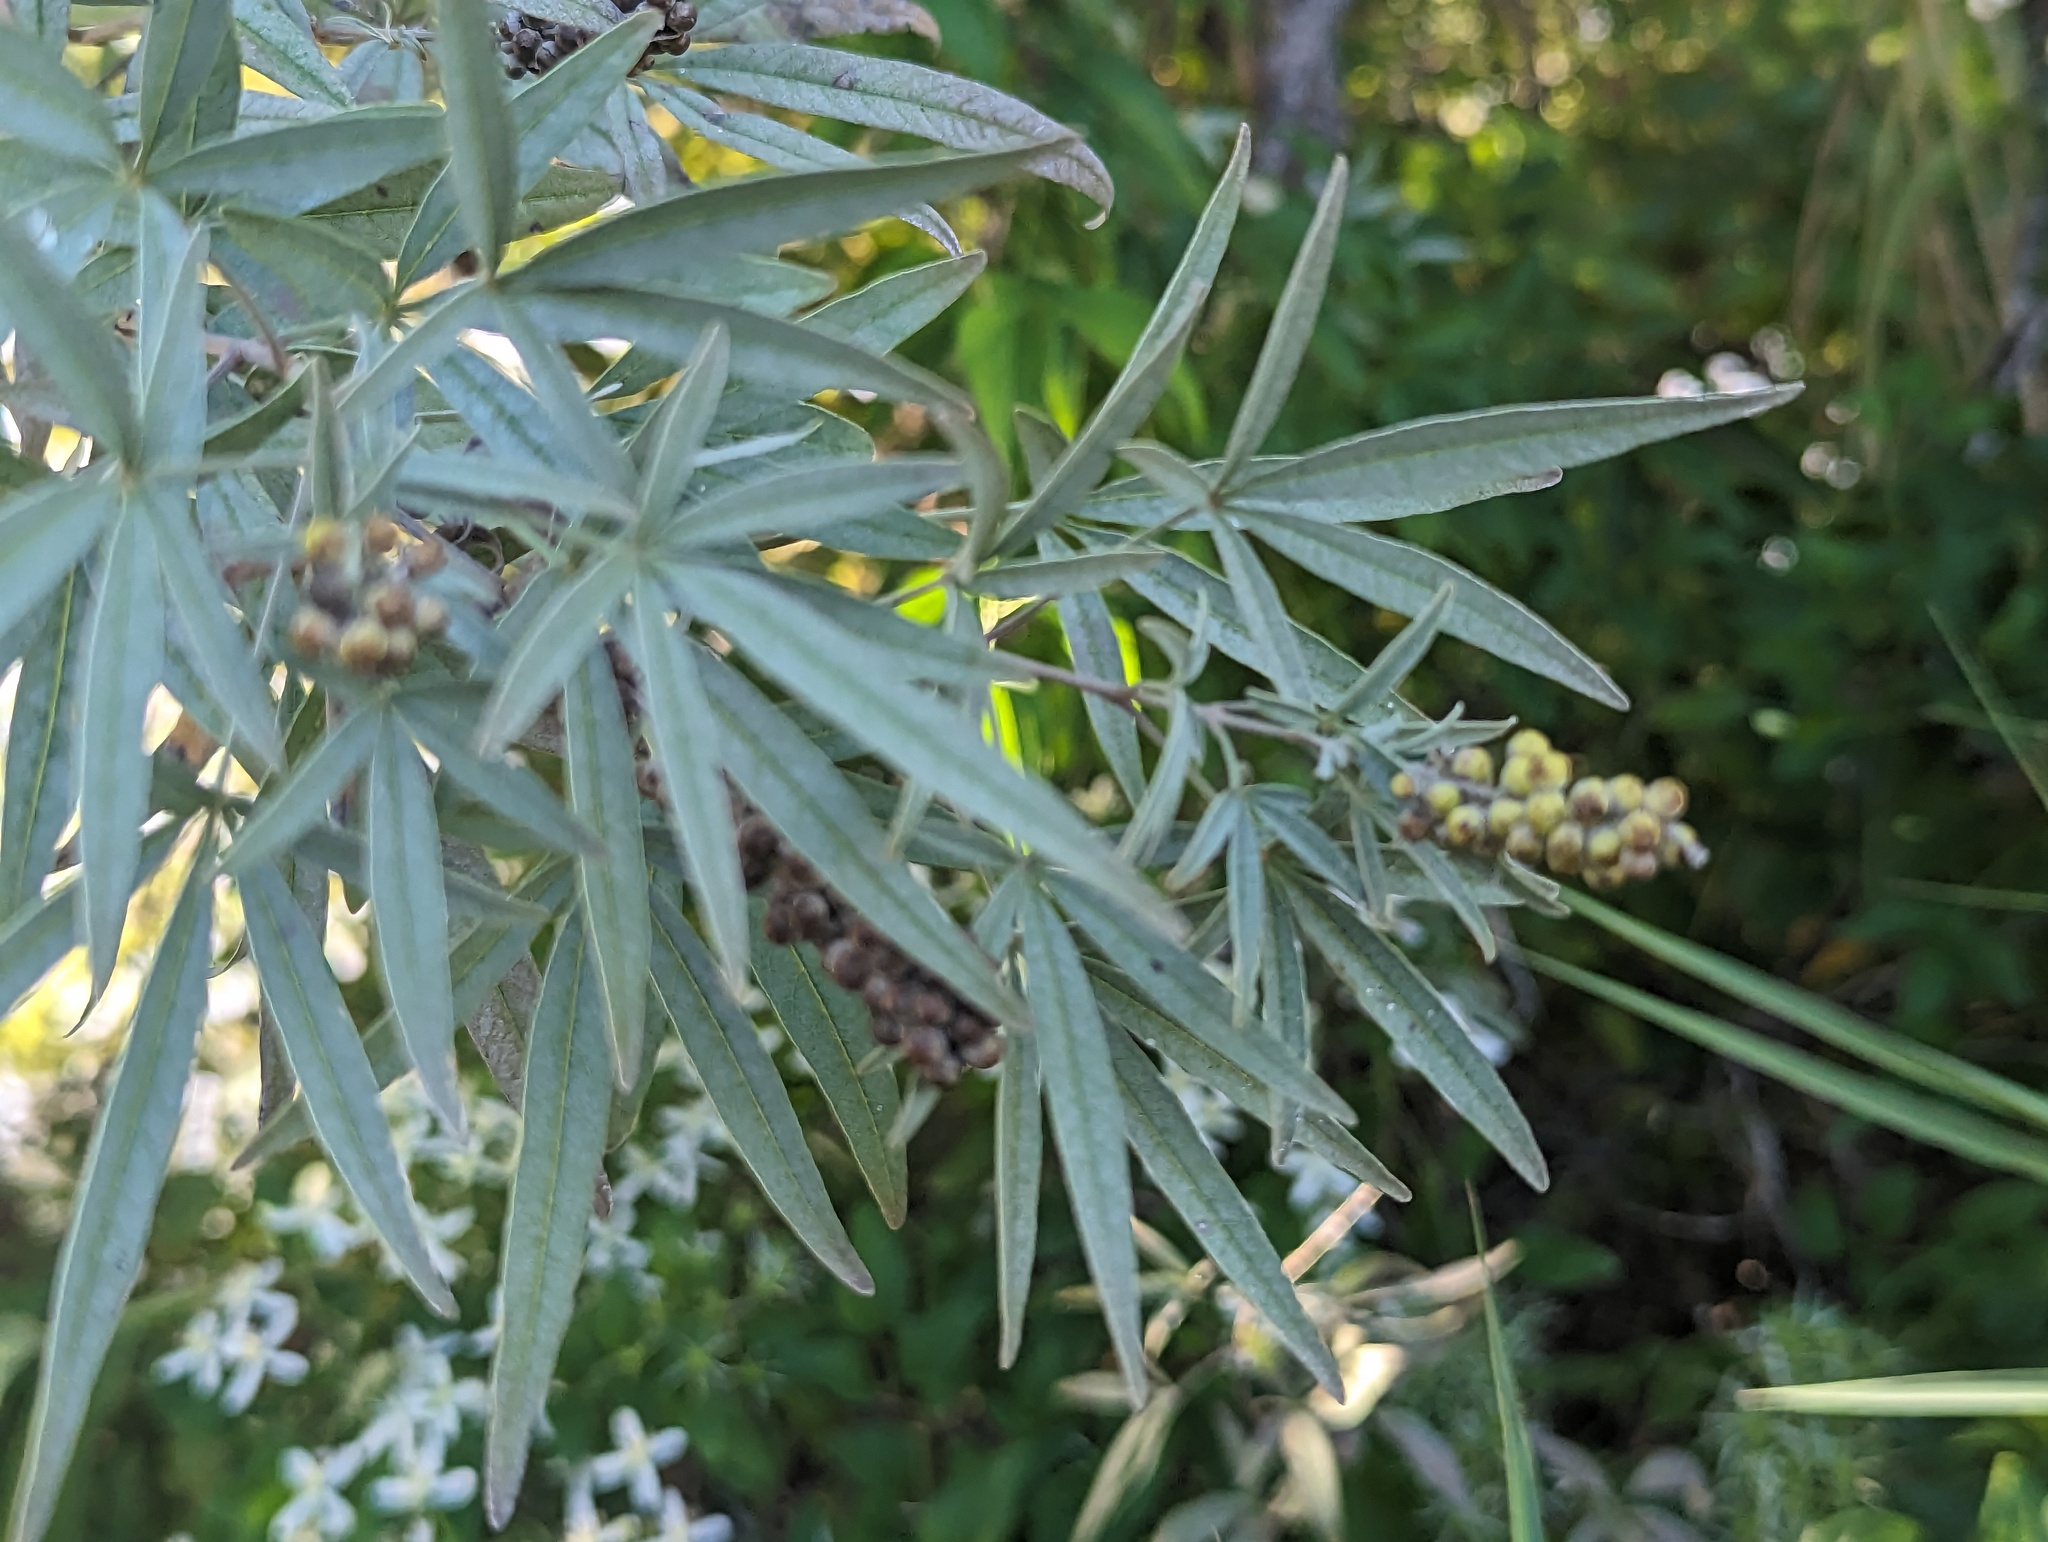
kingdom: Plantae
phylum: Tracheophyta
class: Magnoliopsida
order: Lamiales
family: Lamiaceae
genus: Vitex
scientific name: Vitex agnus-castus
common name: Chasteberry
